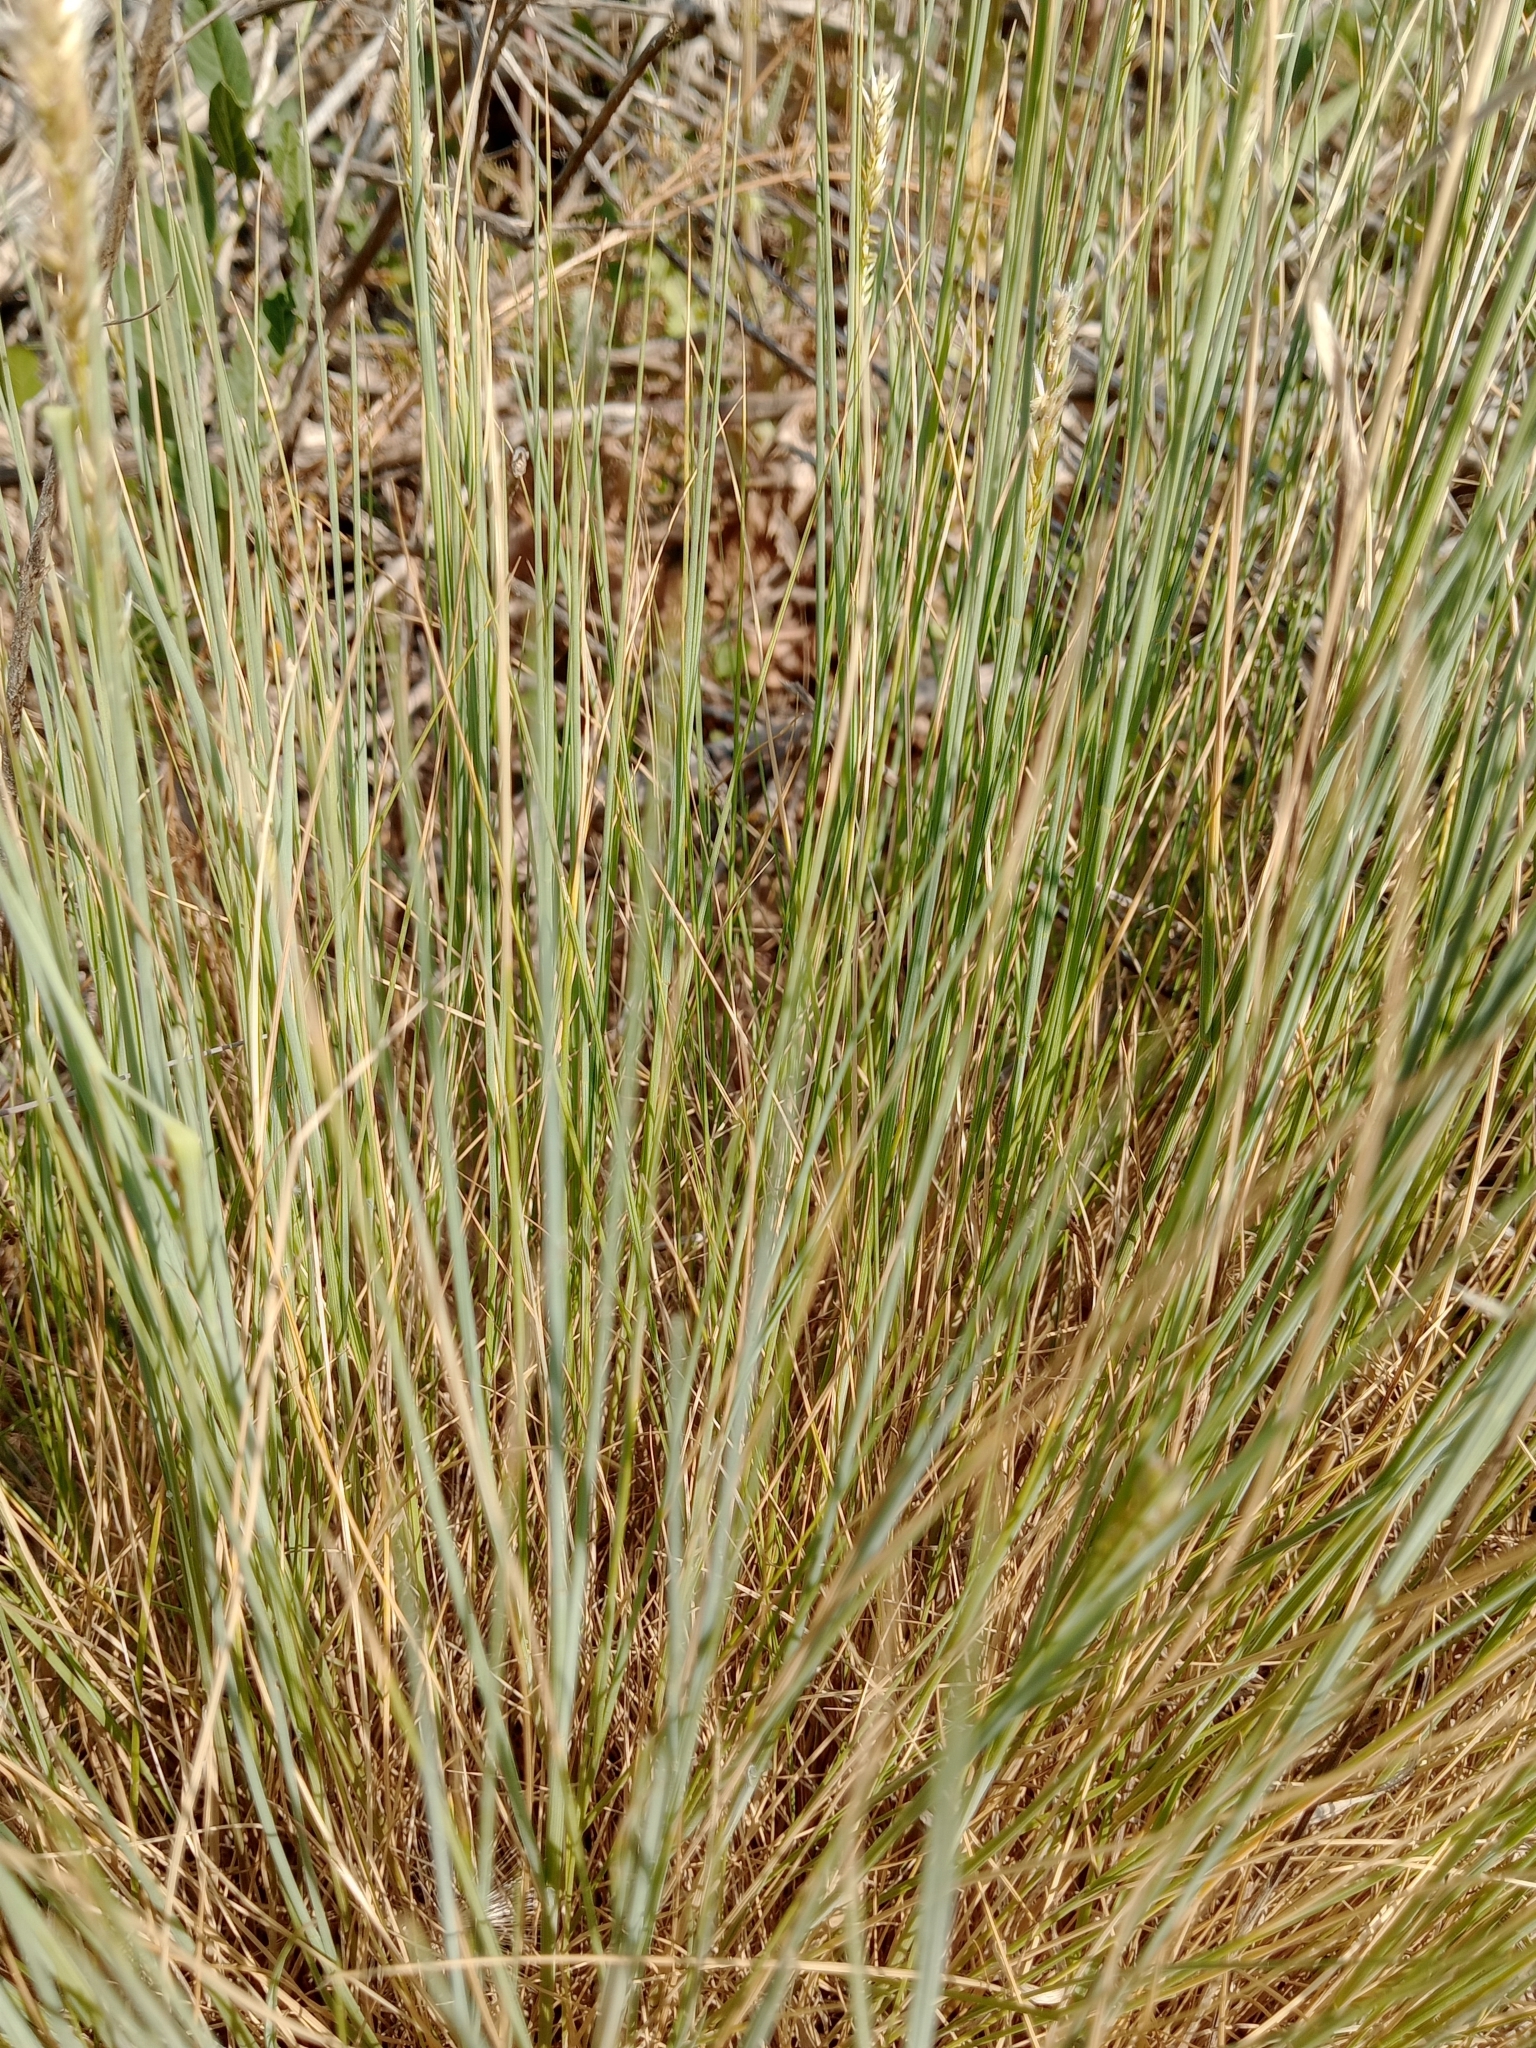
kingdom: Plantae
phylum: Tracheophyta
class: Liliopsida
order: Poales
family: Poaceae
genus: Melica
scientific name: Melica ciliata
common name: Hairy melicgrass
